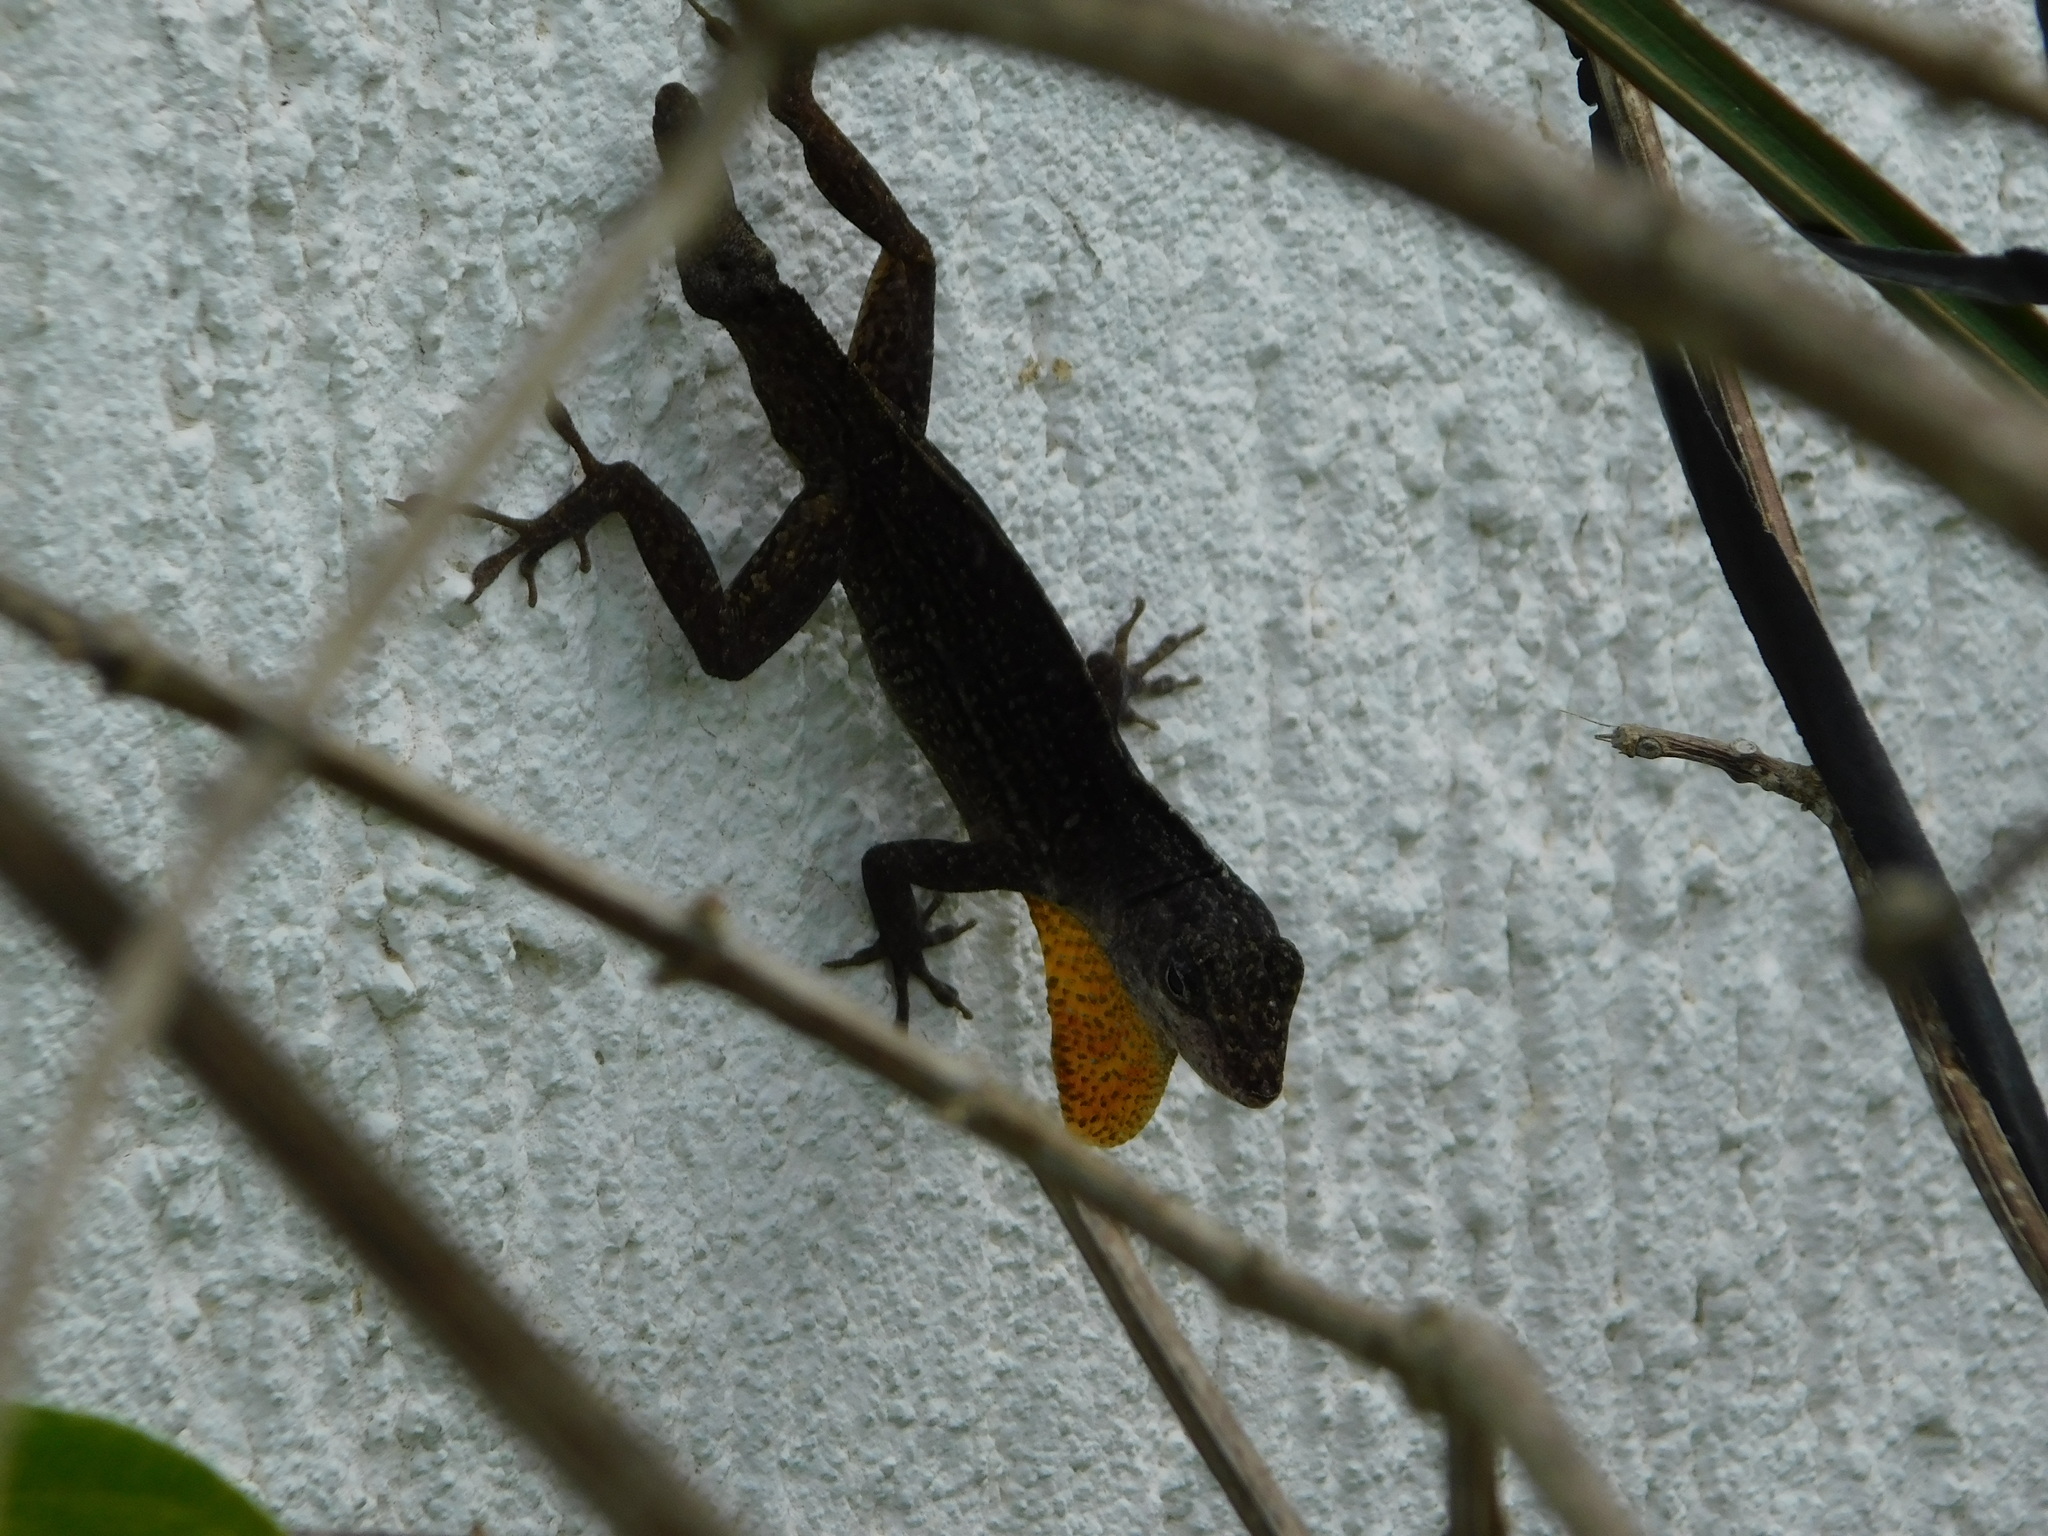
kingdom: Animalia
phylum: Chordata
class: Squamata
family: Dactyloidae
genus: Anolis
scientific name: Anolis sagrei
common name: Brown anole
